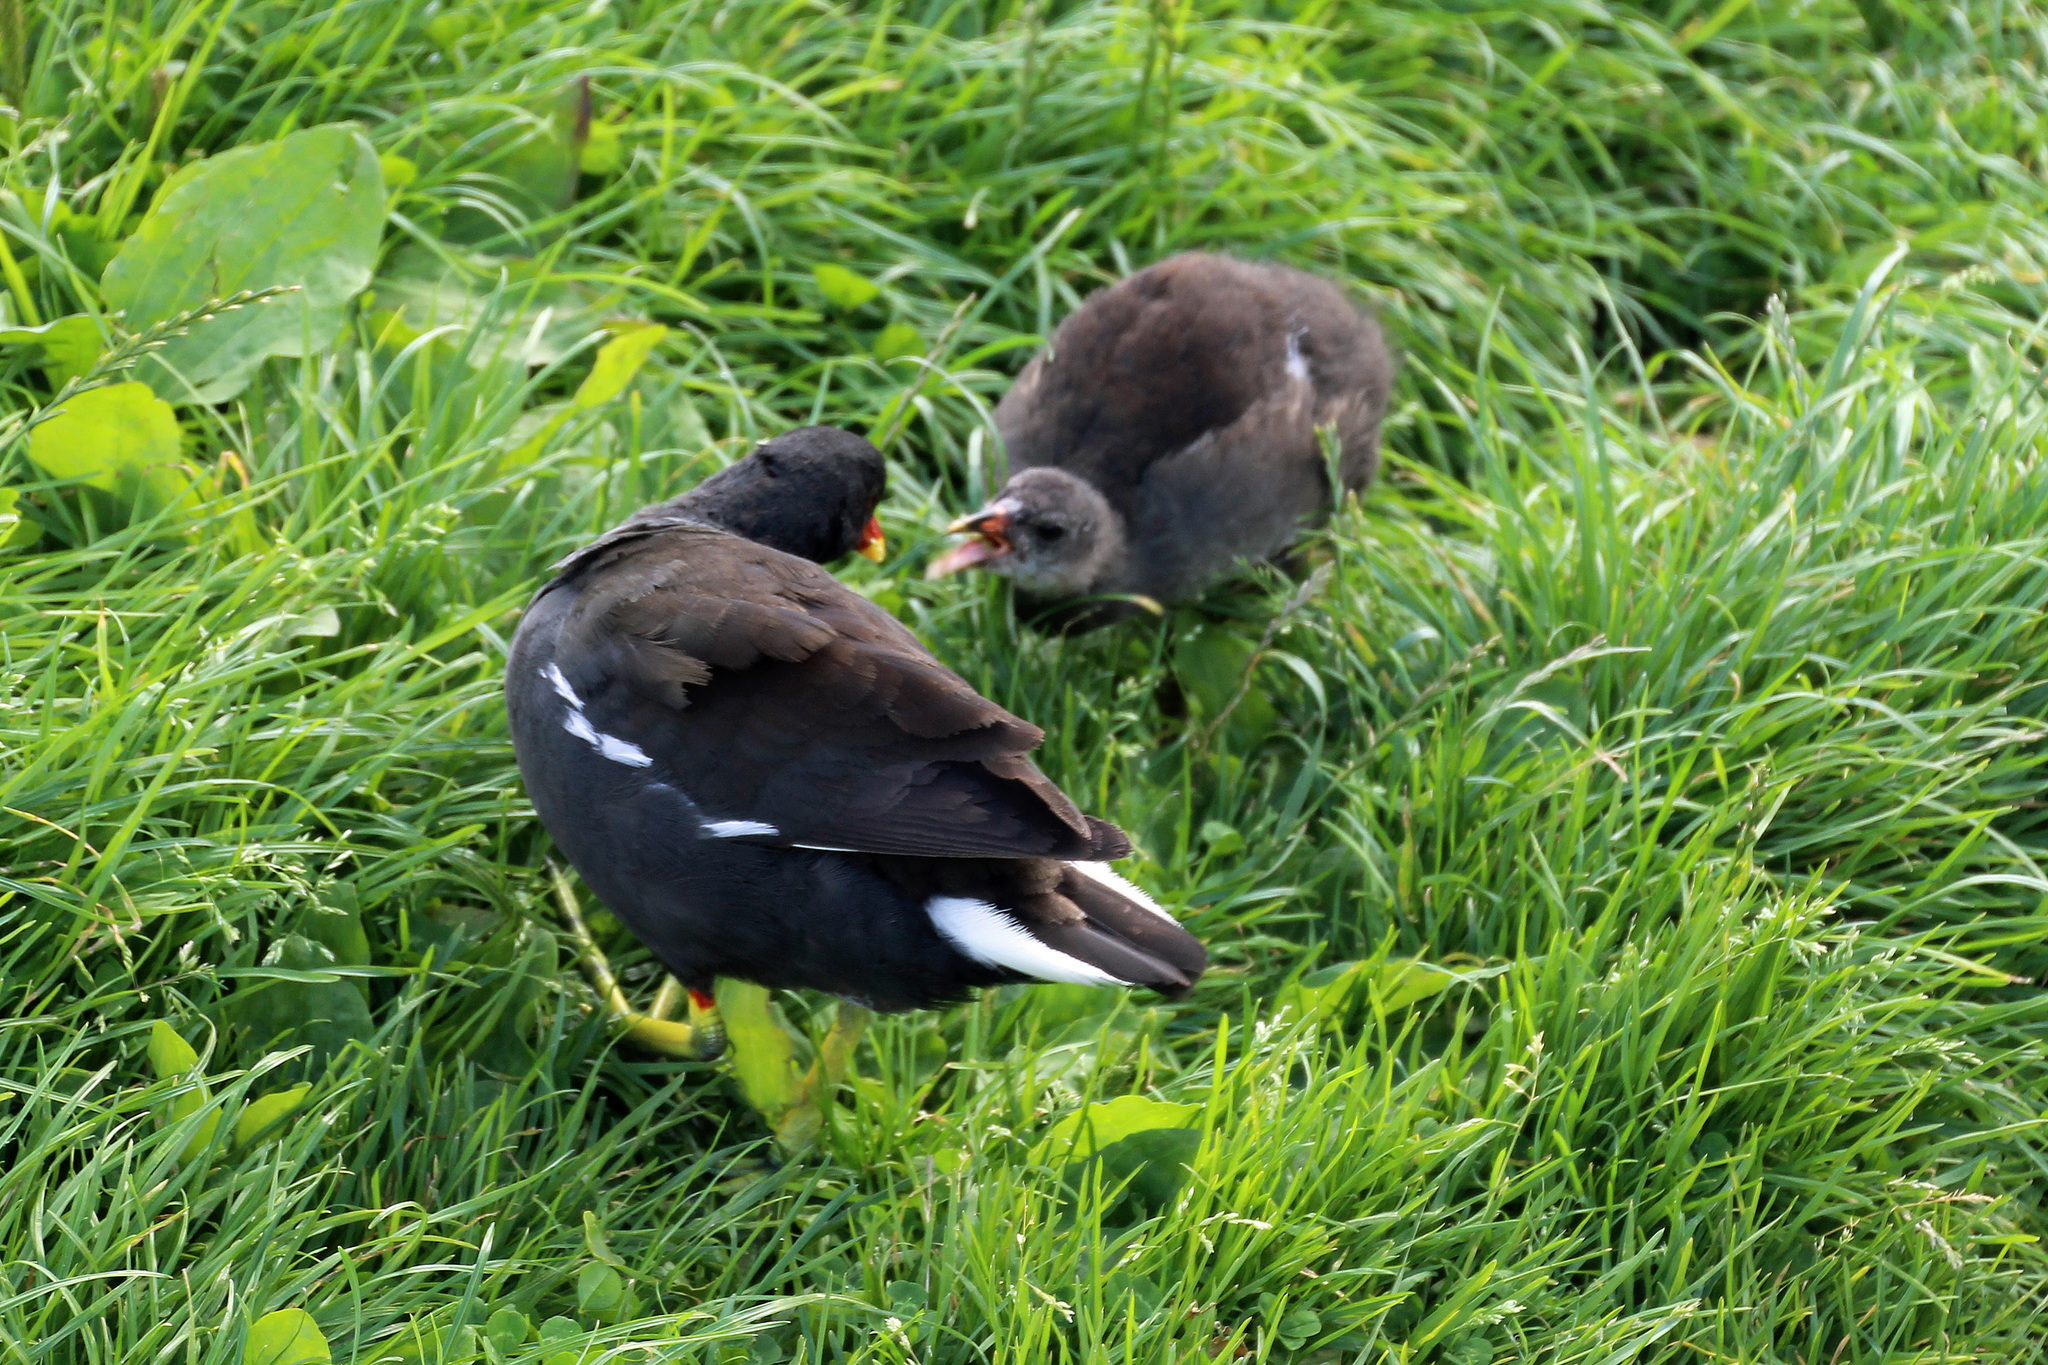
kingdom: Animalia
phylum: Chordata
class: Aves
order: Gruiformes
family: Rallidae
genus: Gallinula
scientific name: Gallinula chloropus
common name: Common moorhen
